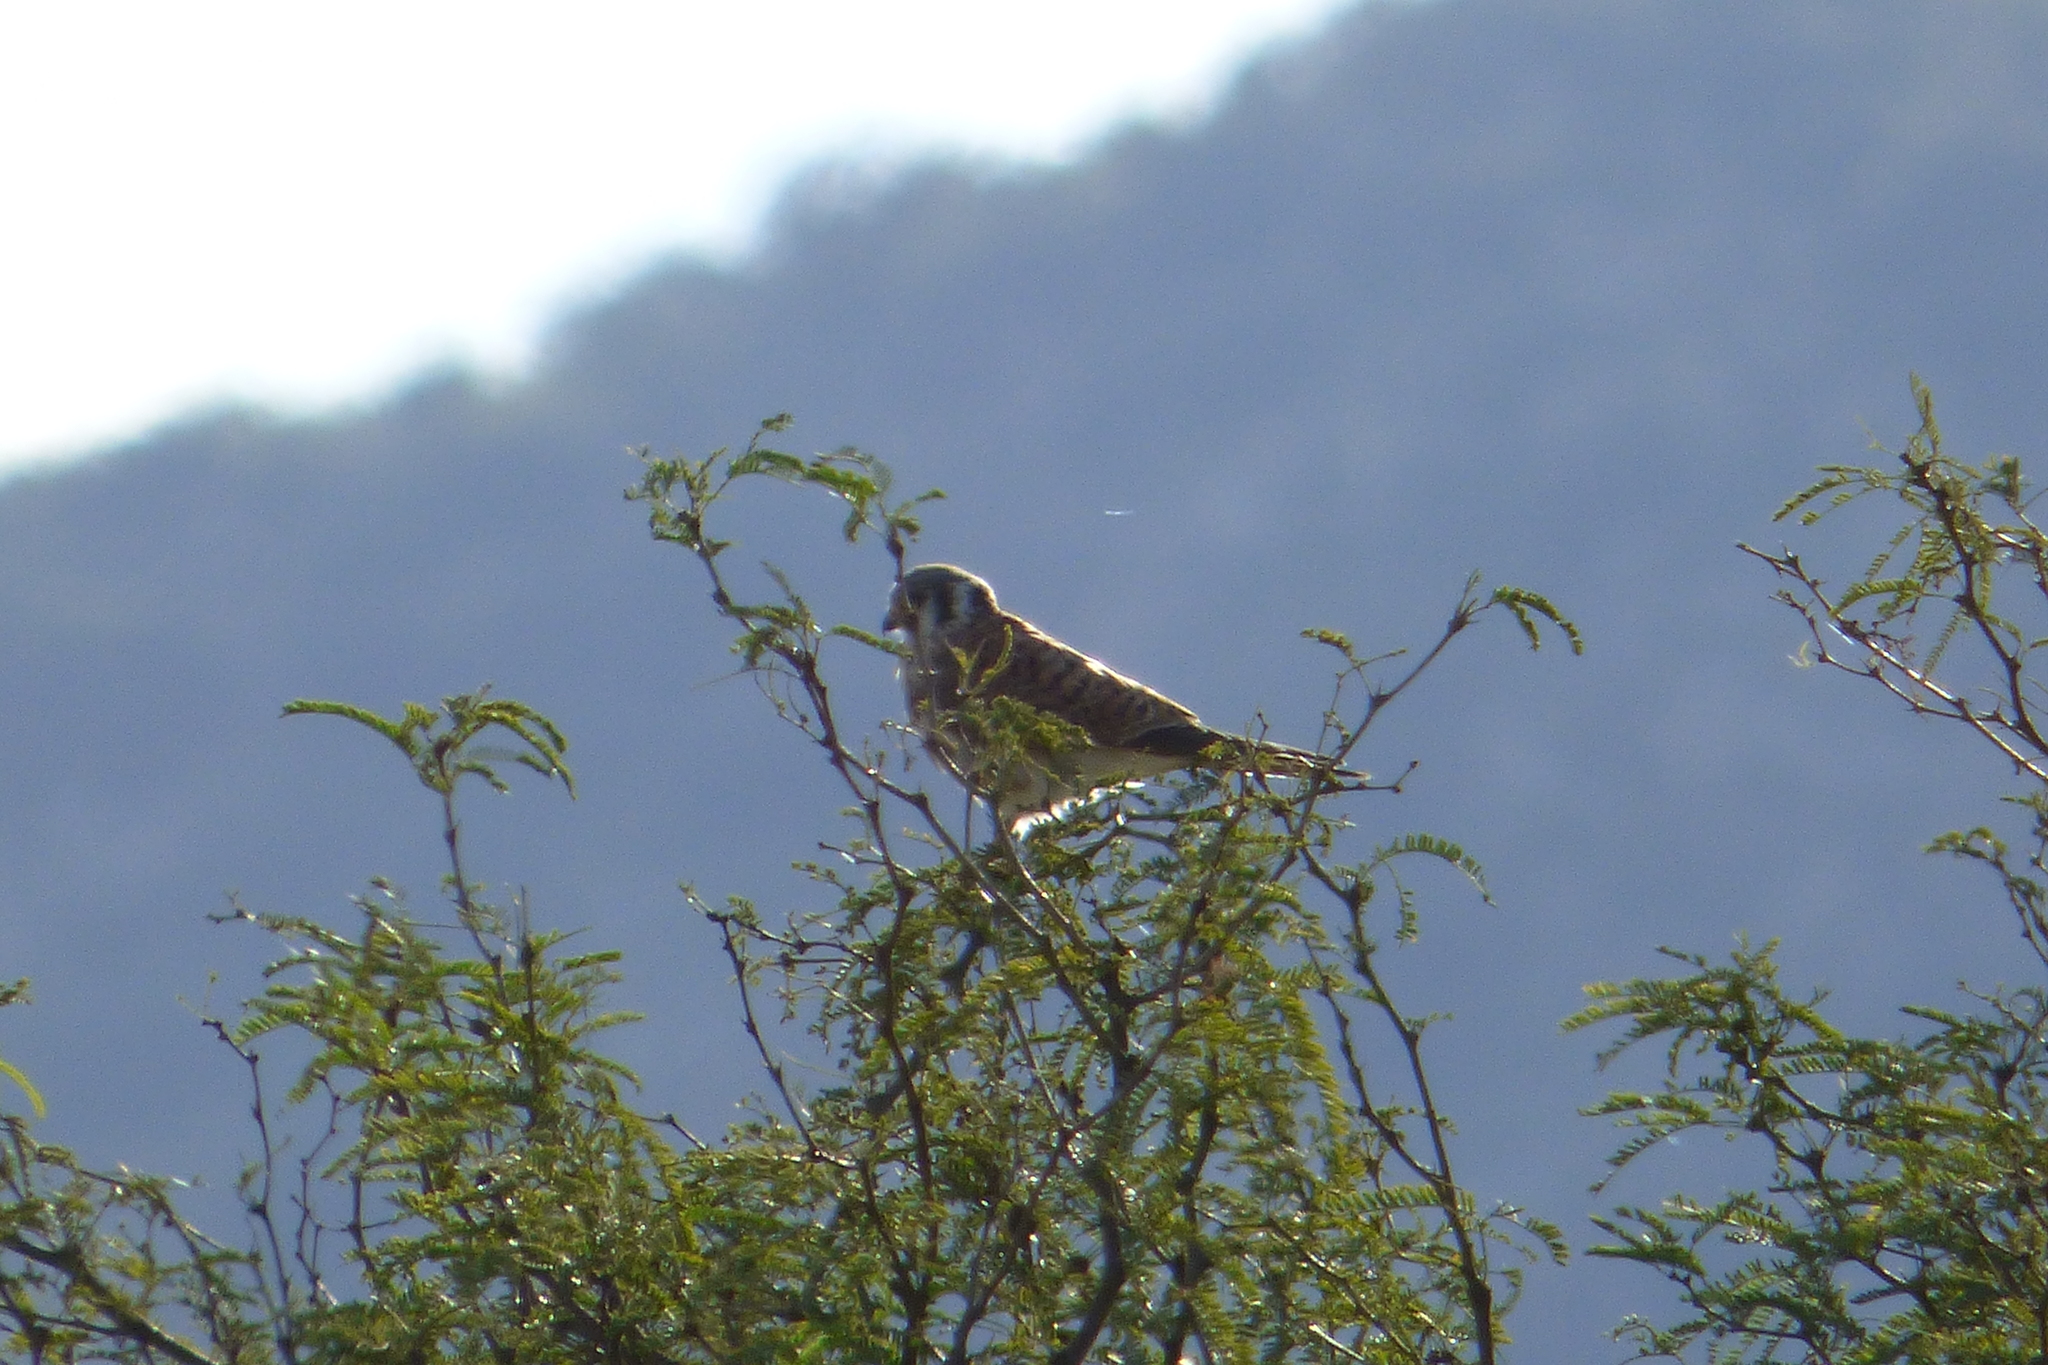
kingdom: Animalia
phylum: Chordata
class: Aves
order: Falconiformes
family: Falconidae
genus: Falco
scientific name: Falco sparverius
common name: American kestrel
